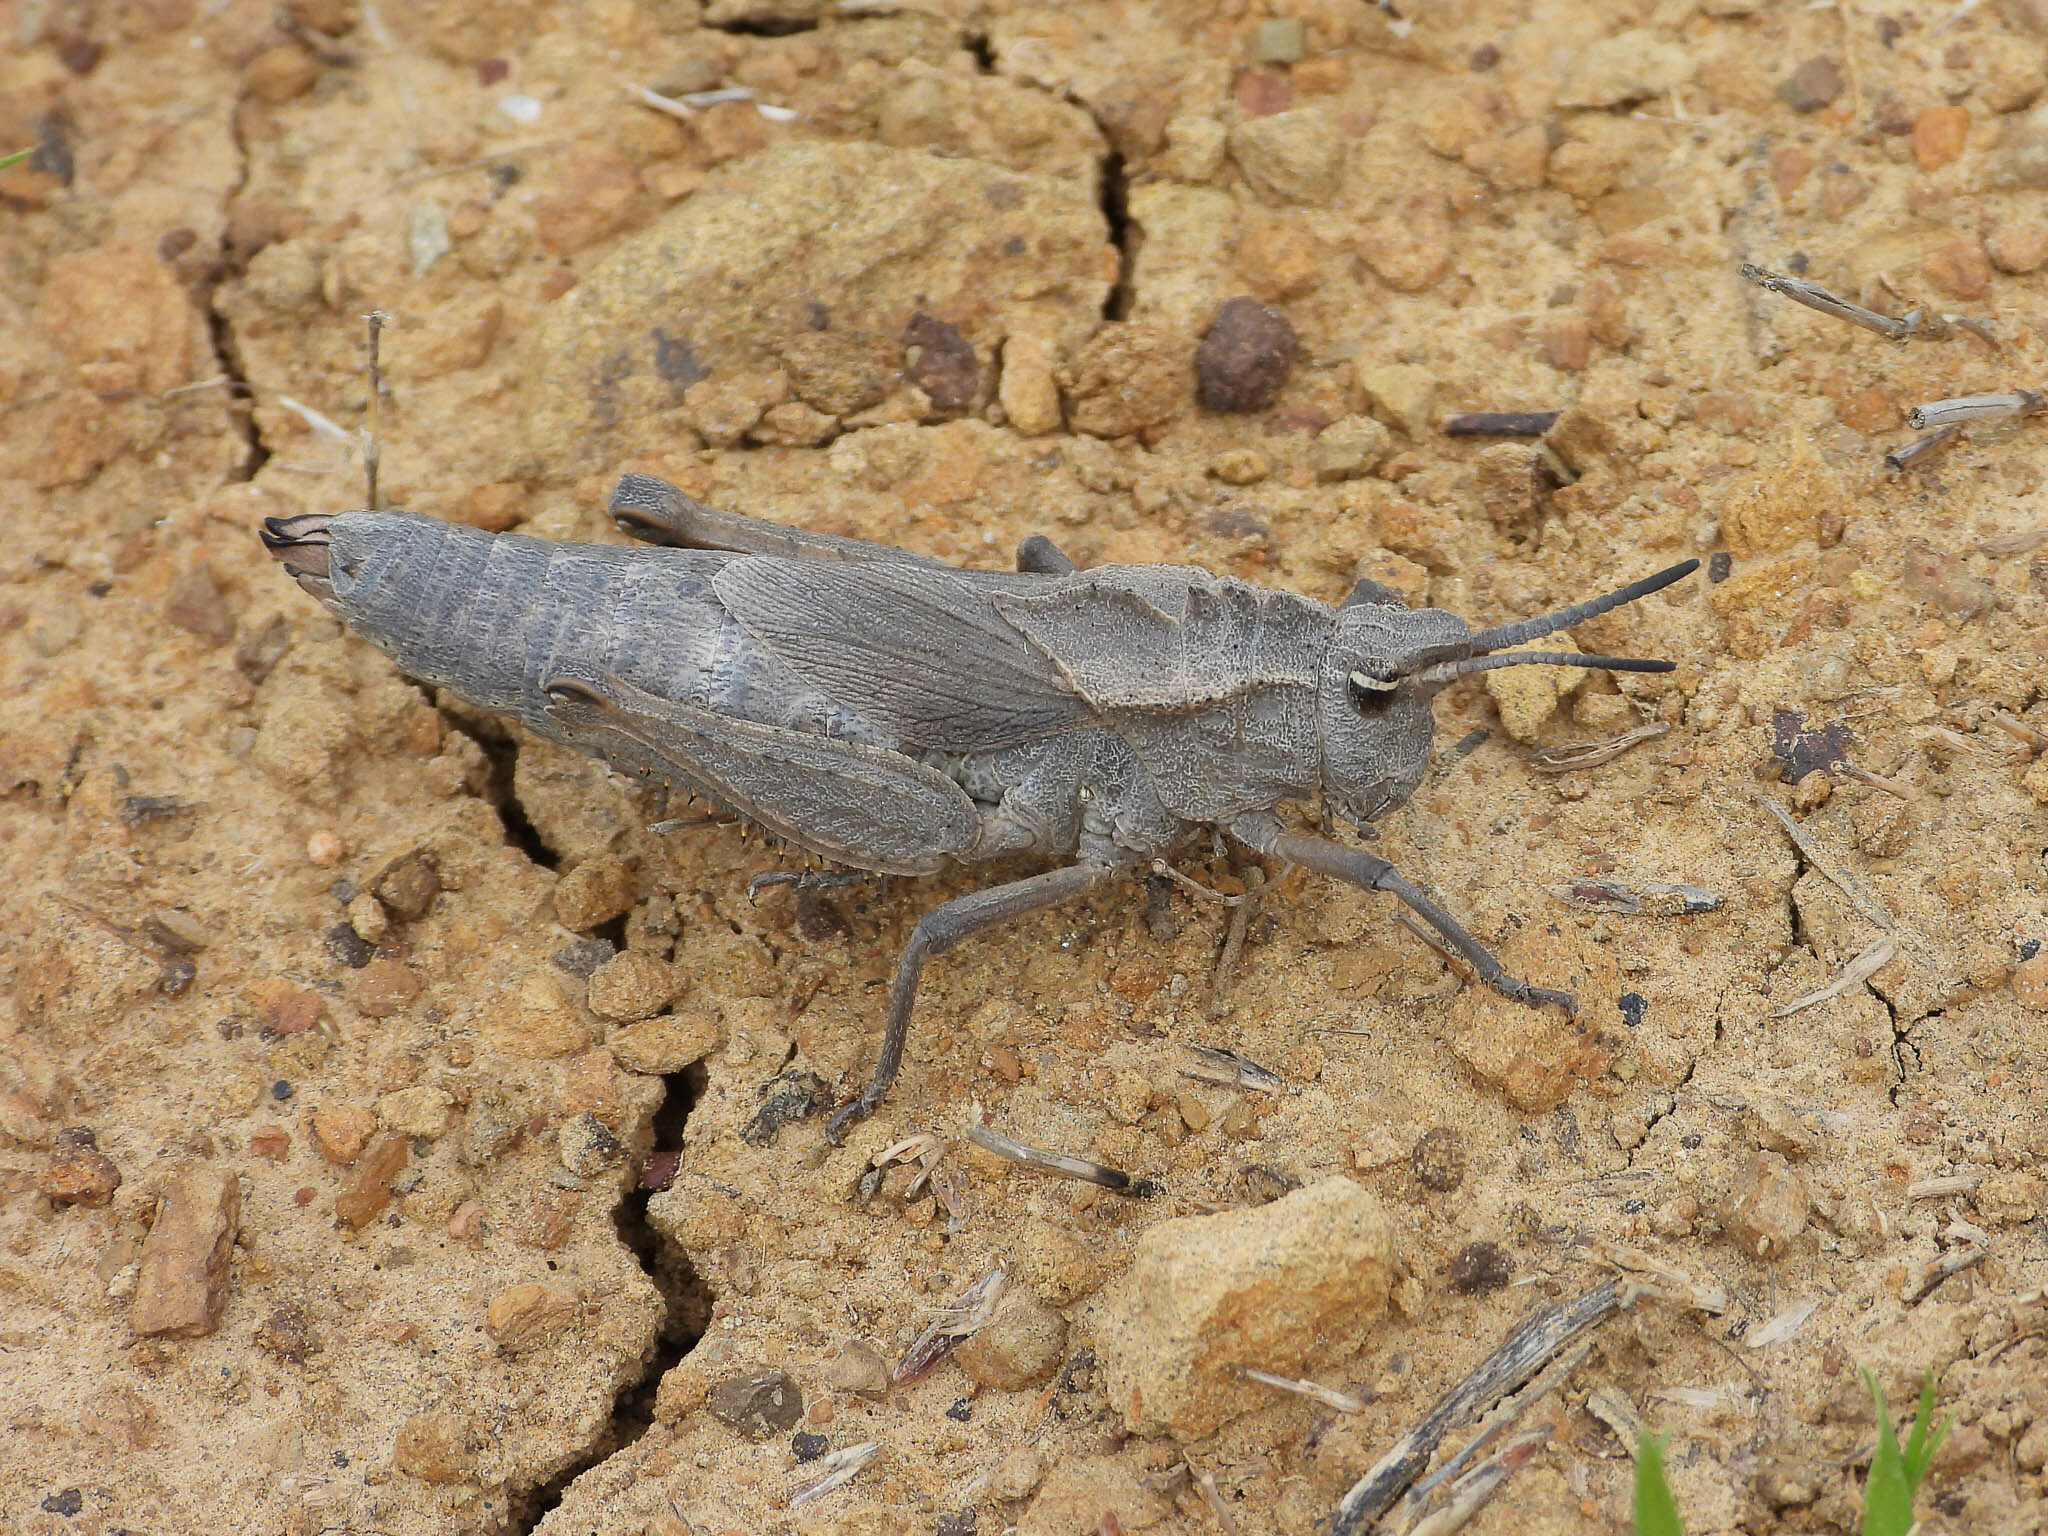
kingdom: Animalia
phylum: Arthropoda
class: Insecta
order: Orthoptera
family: Romaleidae
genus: Dracotettix
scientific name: Dracotettix monstrosus
